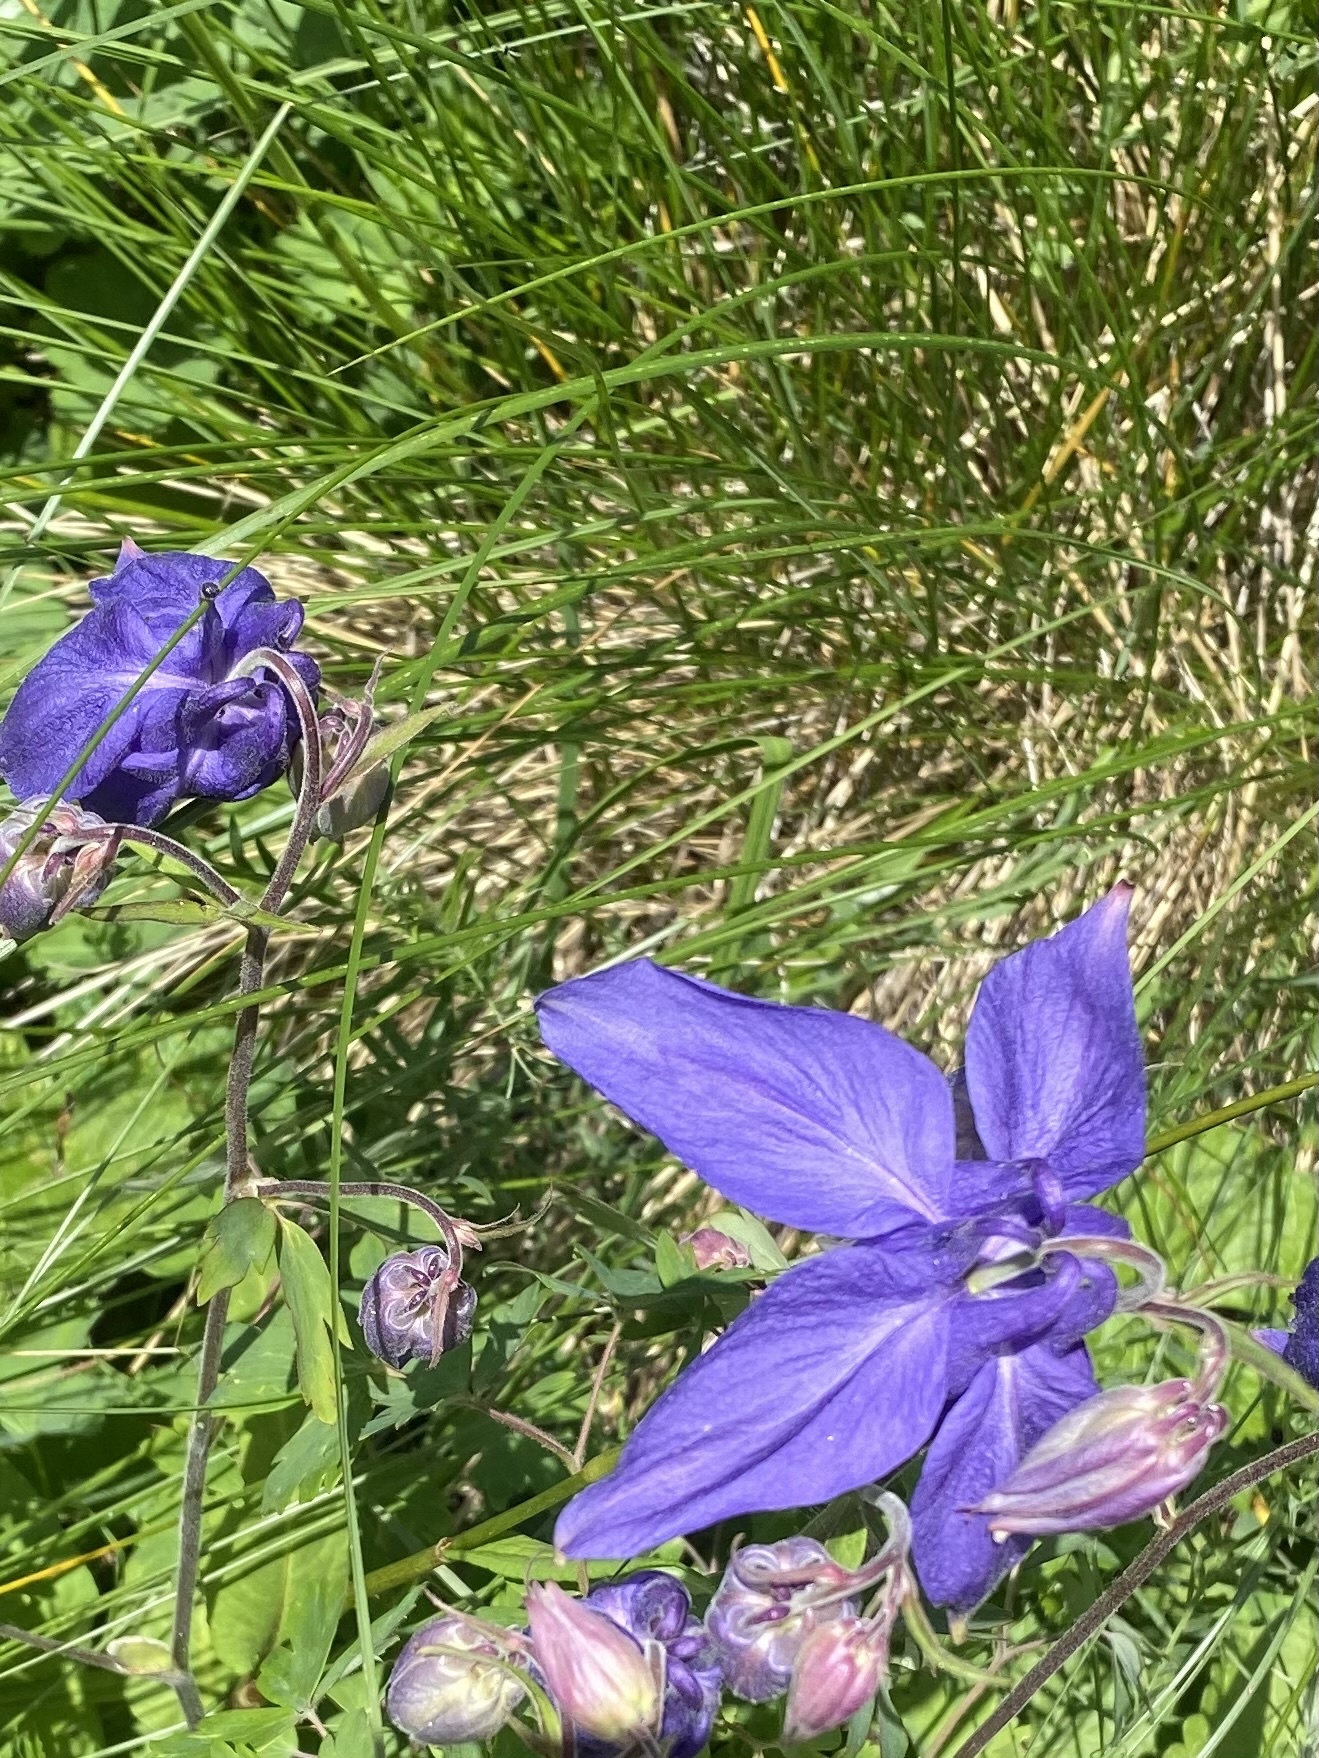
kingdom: Plantae
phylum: Tracheophyta
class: Magnoliopsida
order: Ranunculales
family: Ranunculaceae
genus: Aquilegia
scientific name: Aquilegia olympica
